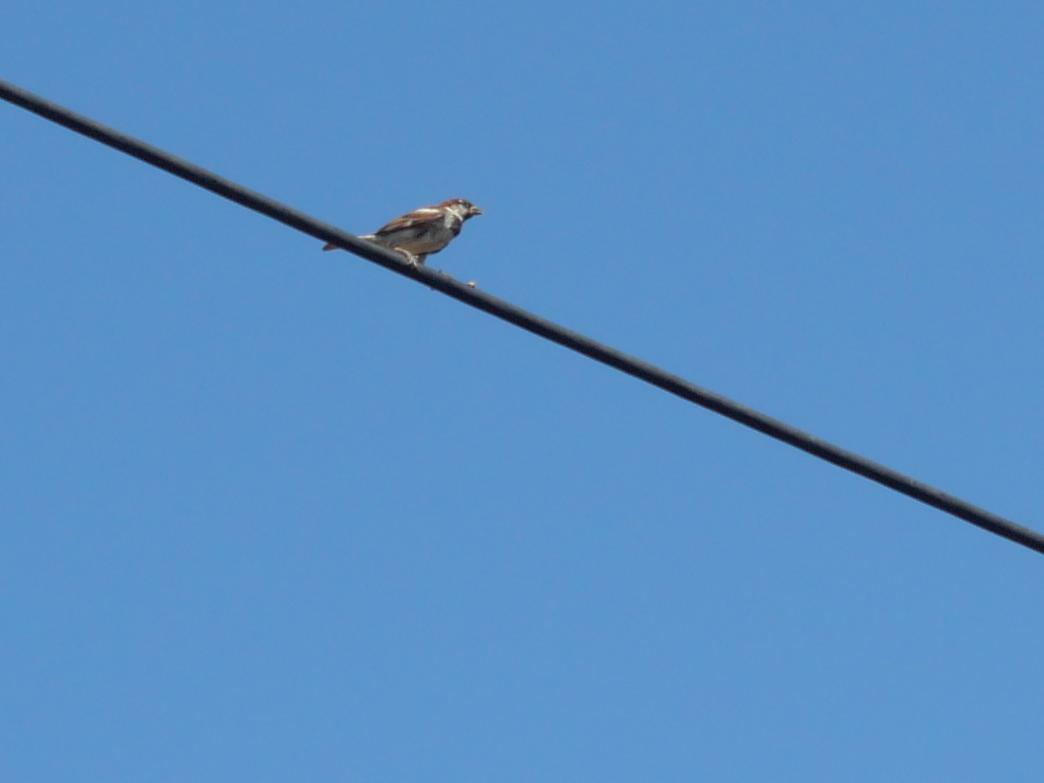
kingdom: Animalia
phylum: Chordata
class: Aves
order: Passeriformes
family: Passeridae
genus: Passer
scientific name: Passer domesticus
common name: House sparrow
